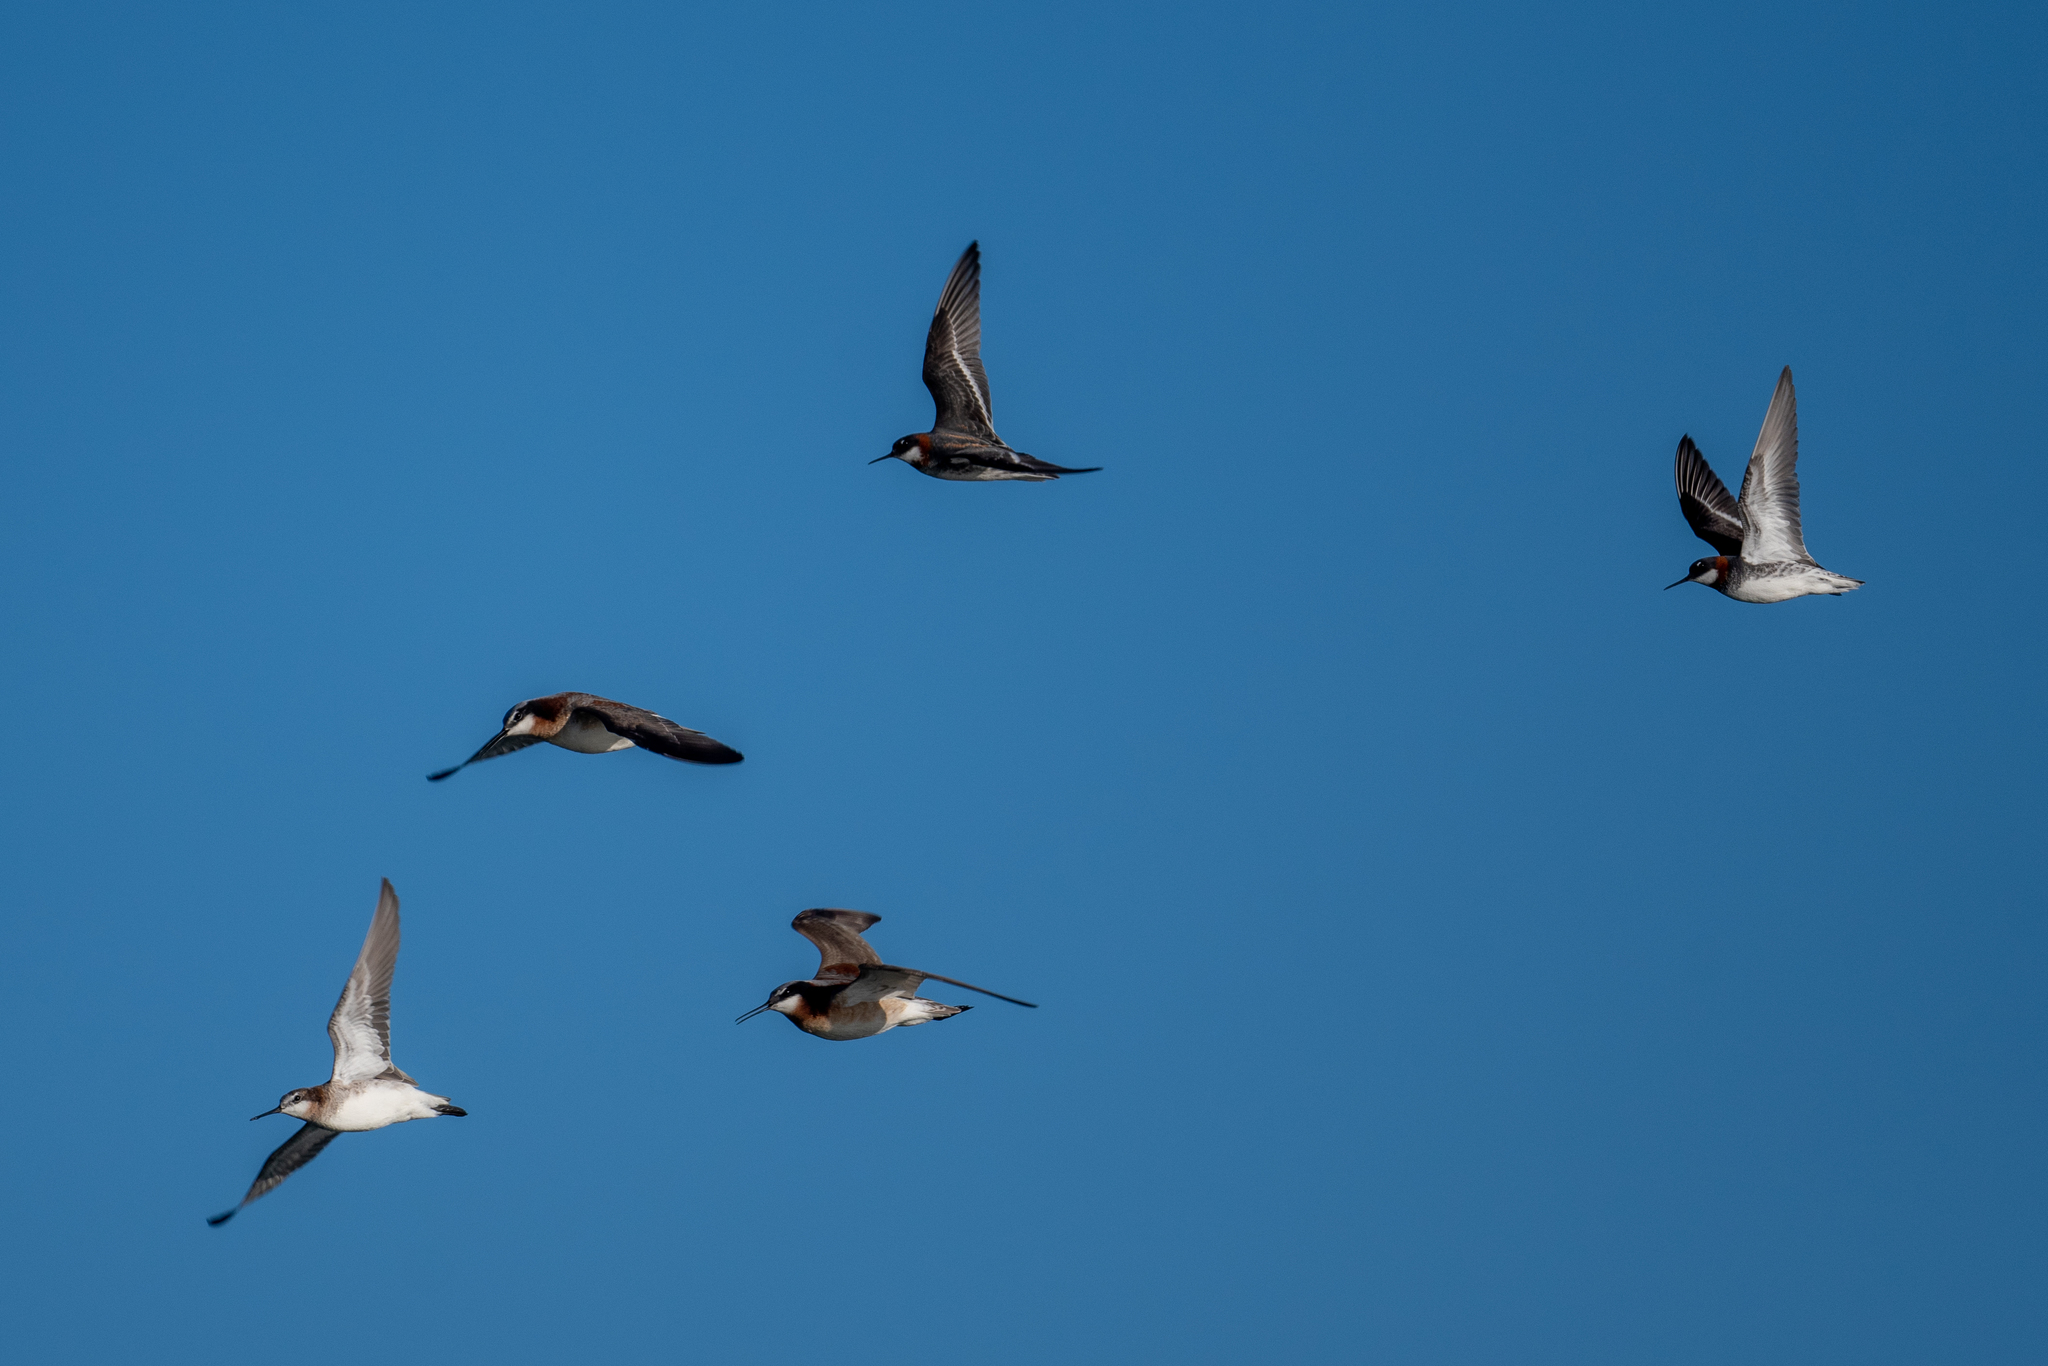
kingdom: Animalia
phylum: Chordata
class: Aves
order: Charadriiformes
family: Scolopacidae
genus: Phalaropus
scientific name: Phalaropus lobatus
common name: Red-necked phalarope
